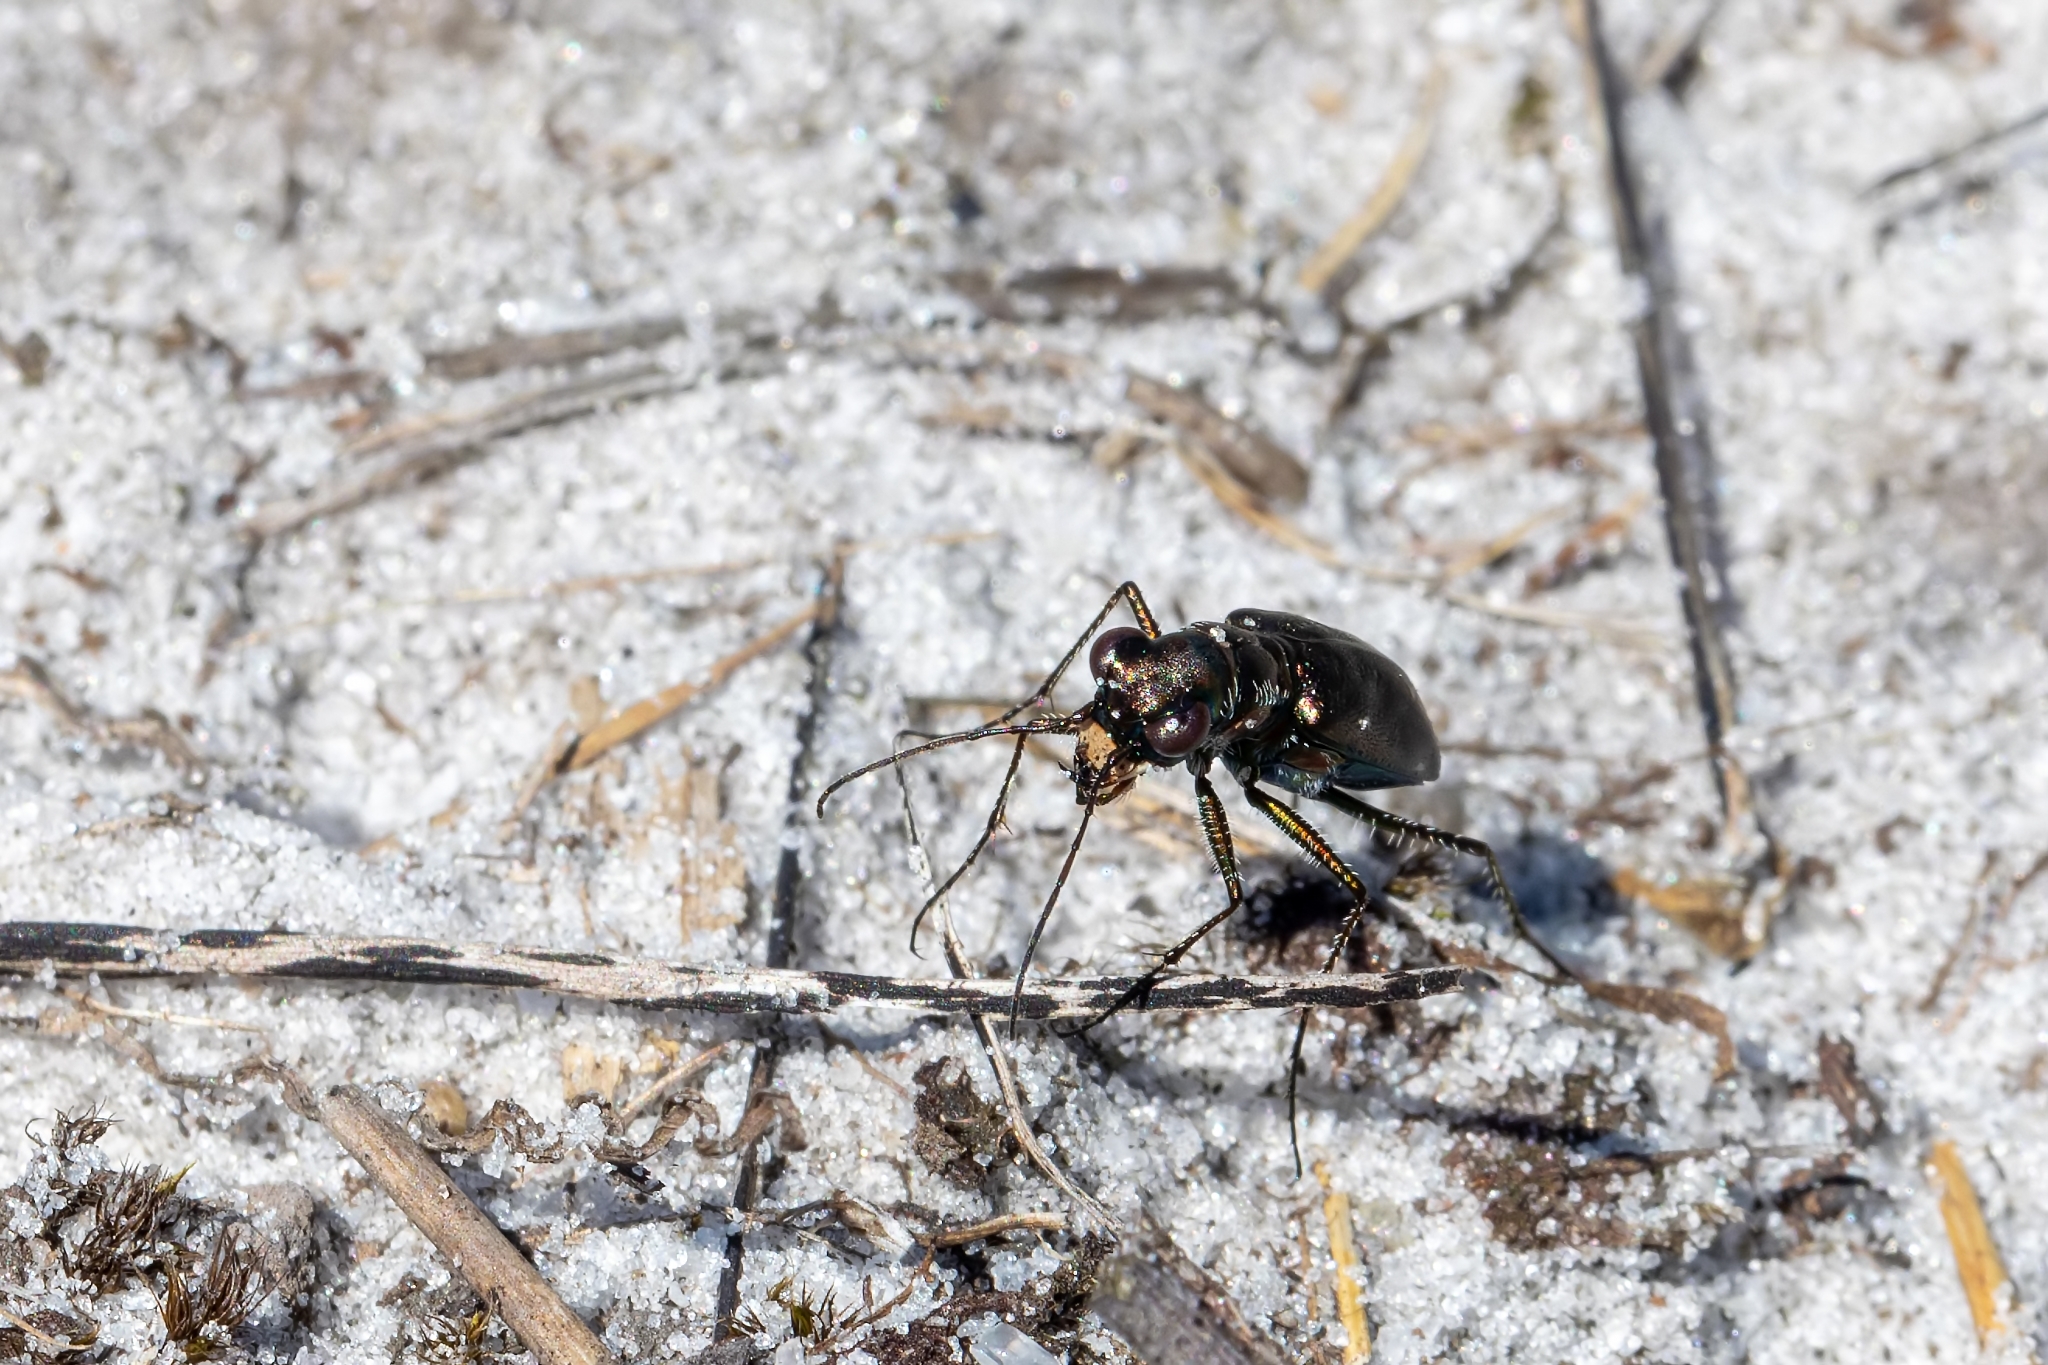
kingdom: Animalia
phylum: Arthropoda
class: Insecta
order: Coleoptera
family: Carabidae
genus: Cicindela
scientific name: Cicindela punctulata
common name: Punctured tiger beetle
